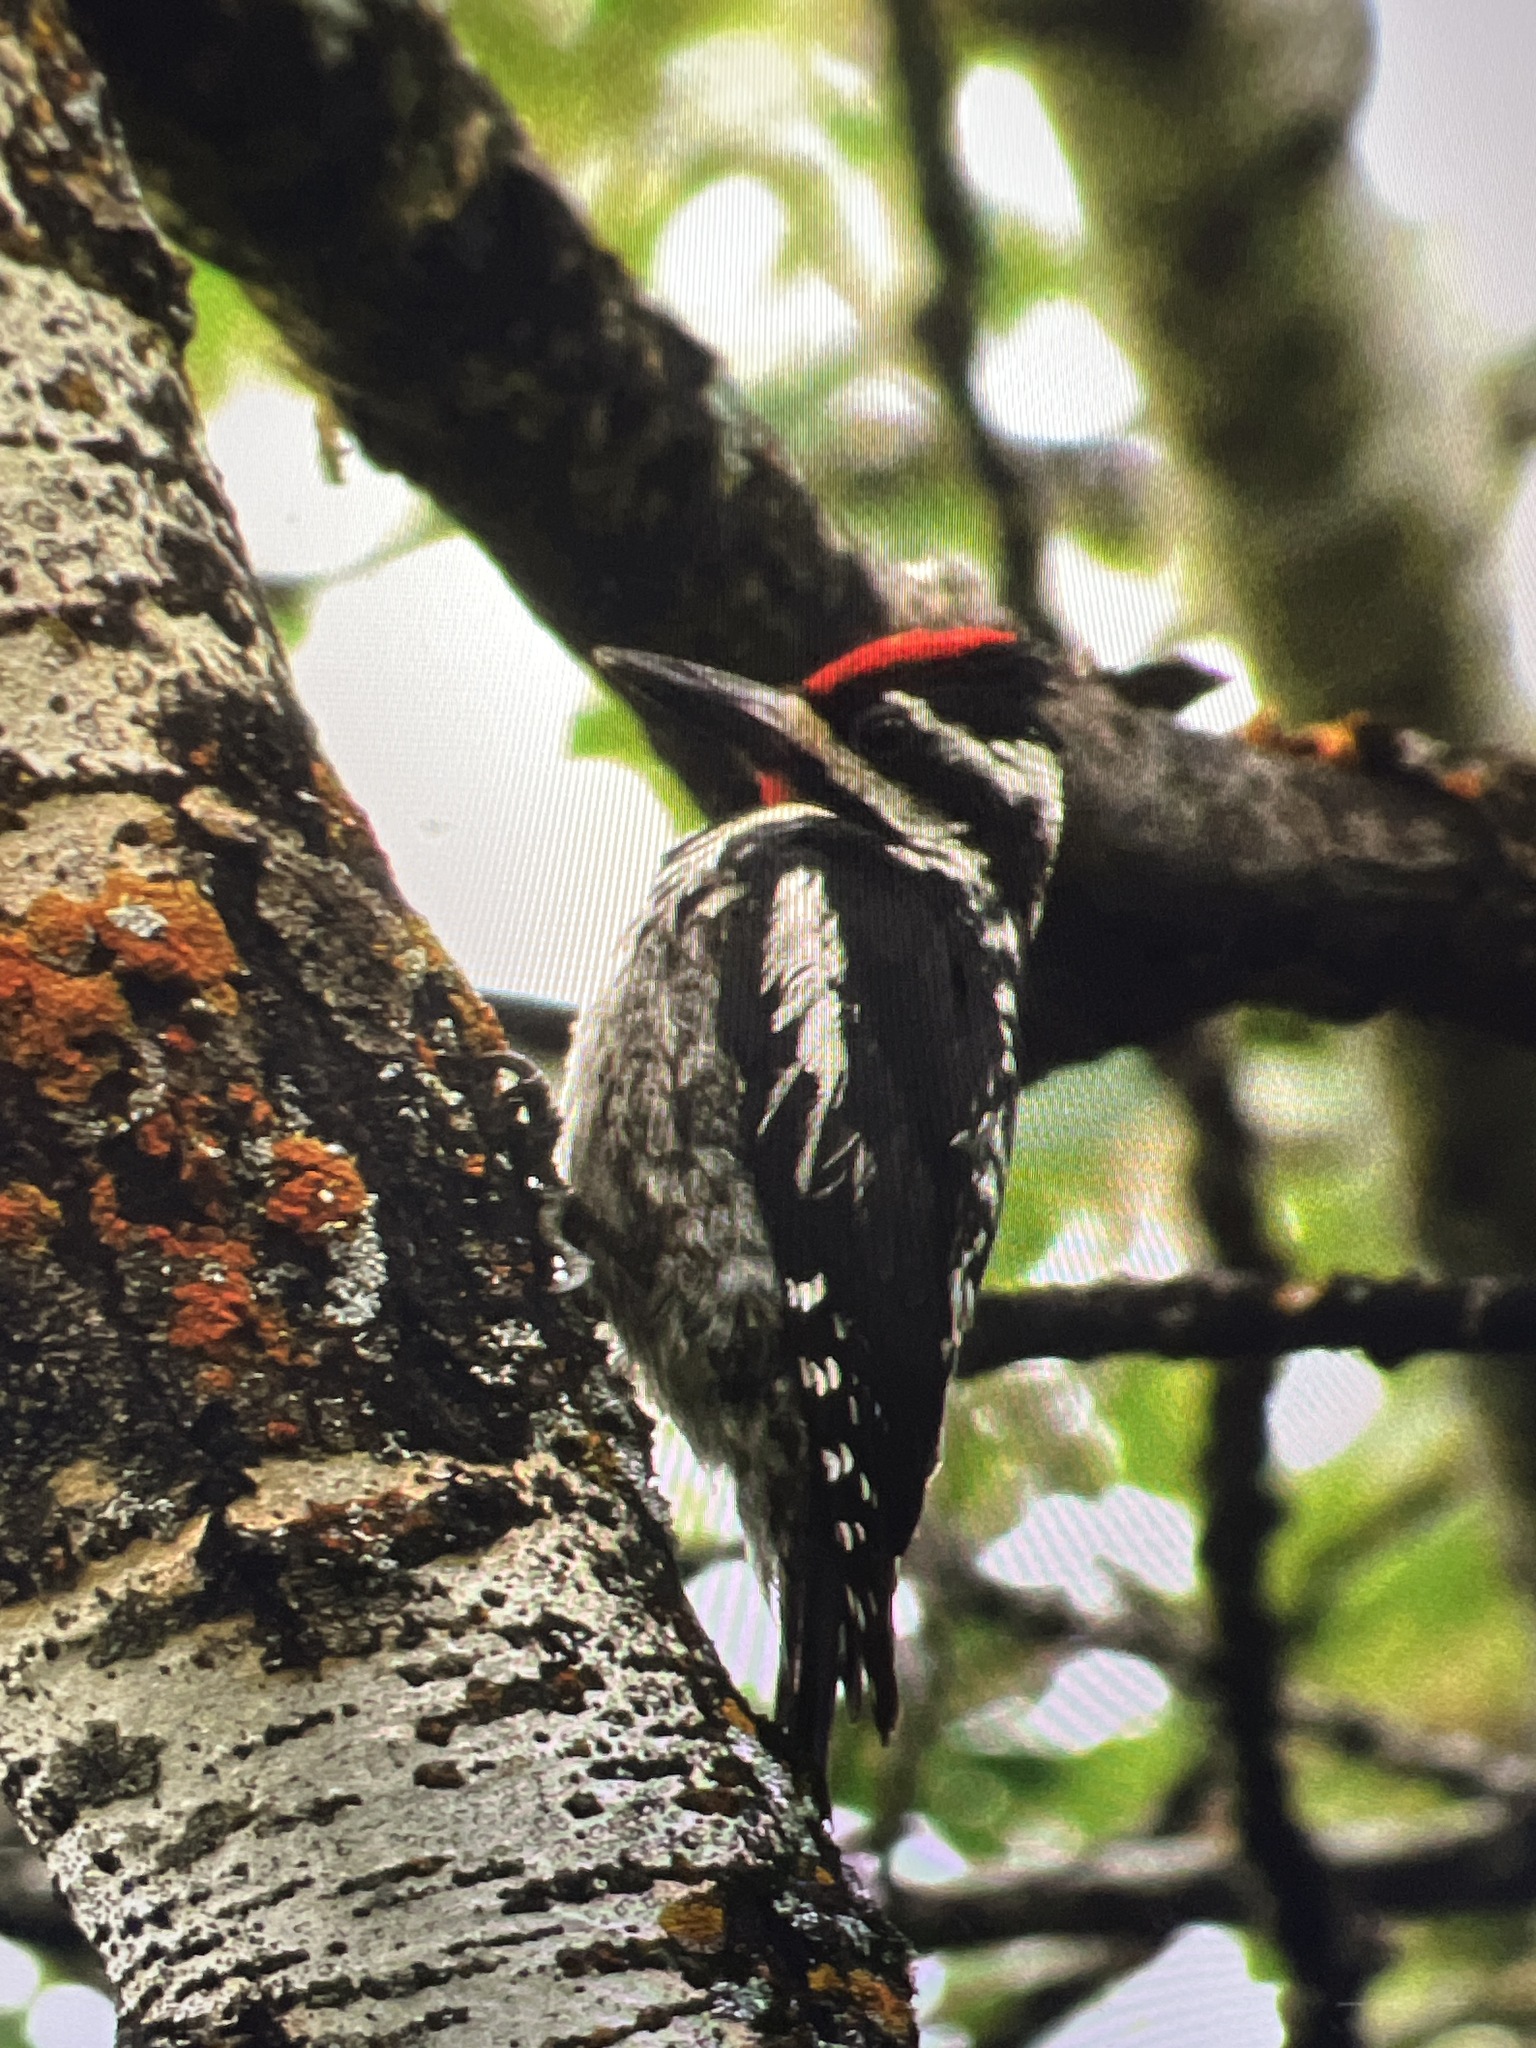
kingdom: Animalia
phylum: Chordata
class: Aves
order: Piciformes
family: Picidae
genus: Sphyrapicus
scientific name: Sphyrapicus varius
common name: Yellow-bellied sapsucker
